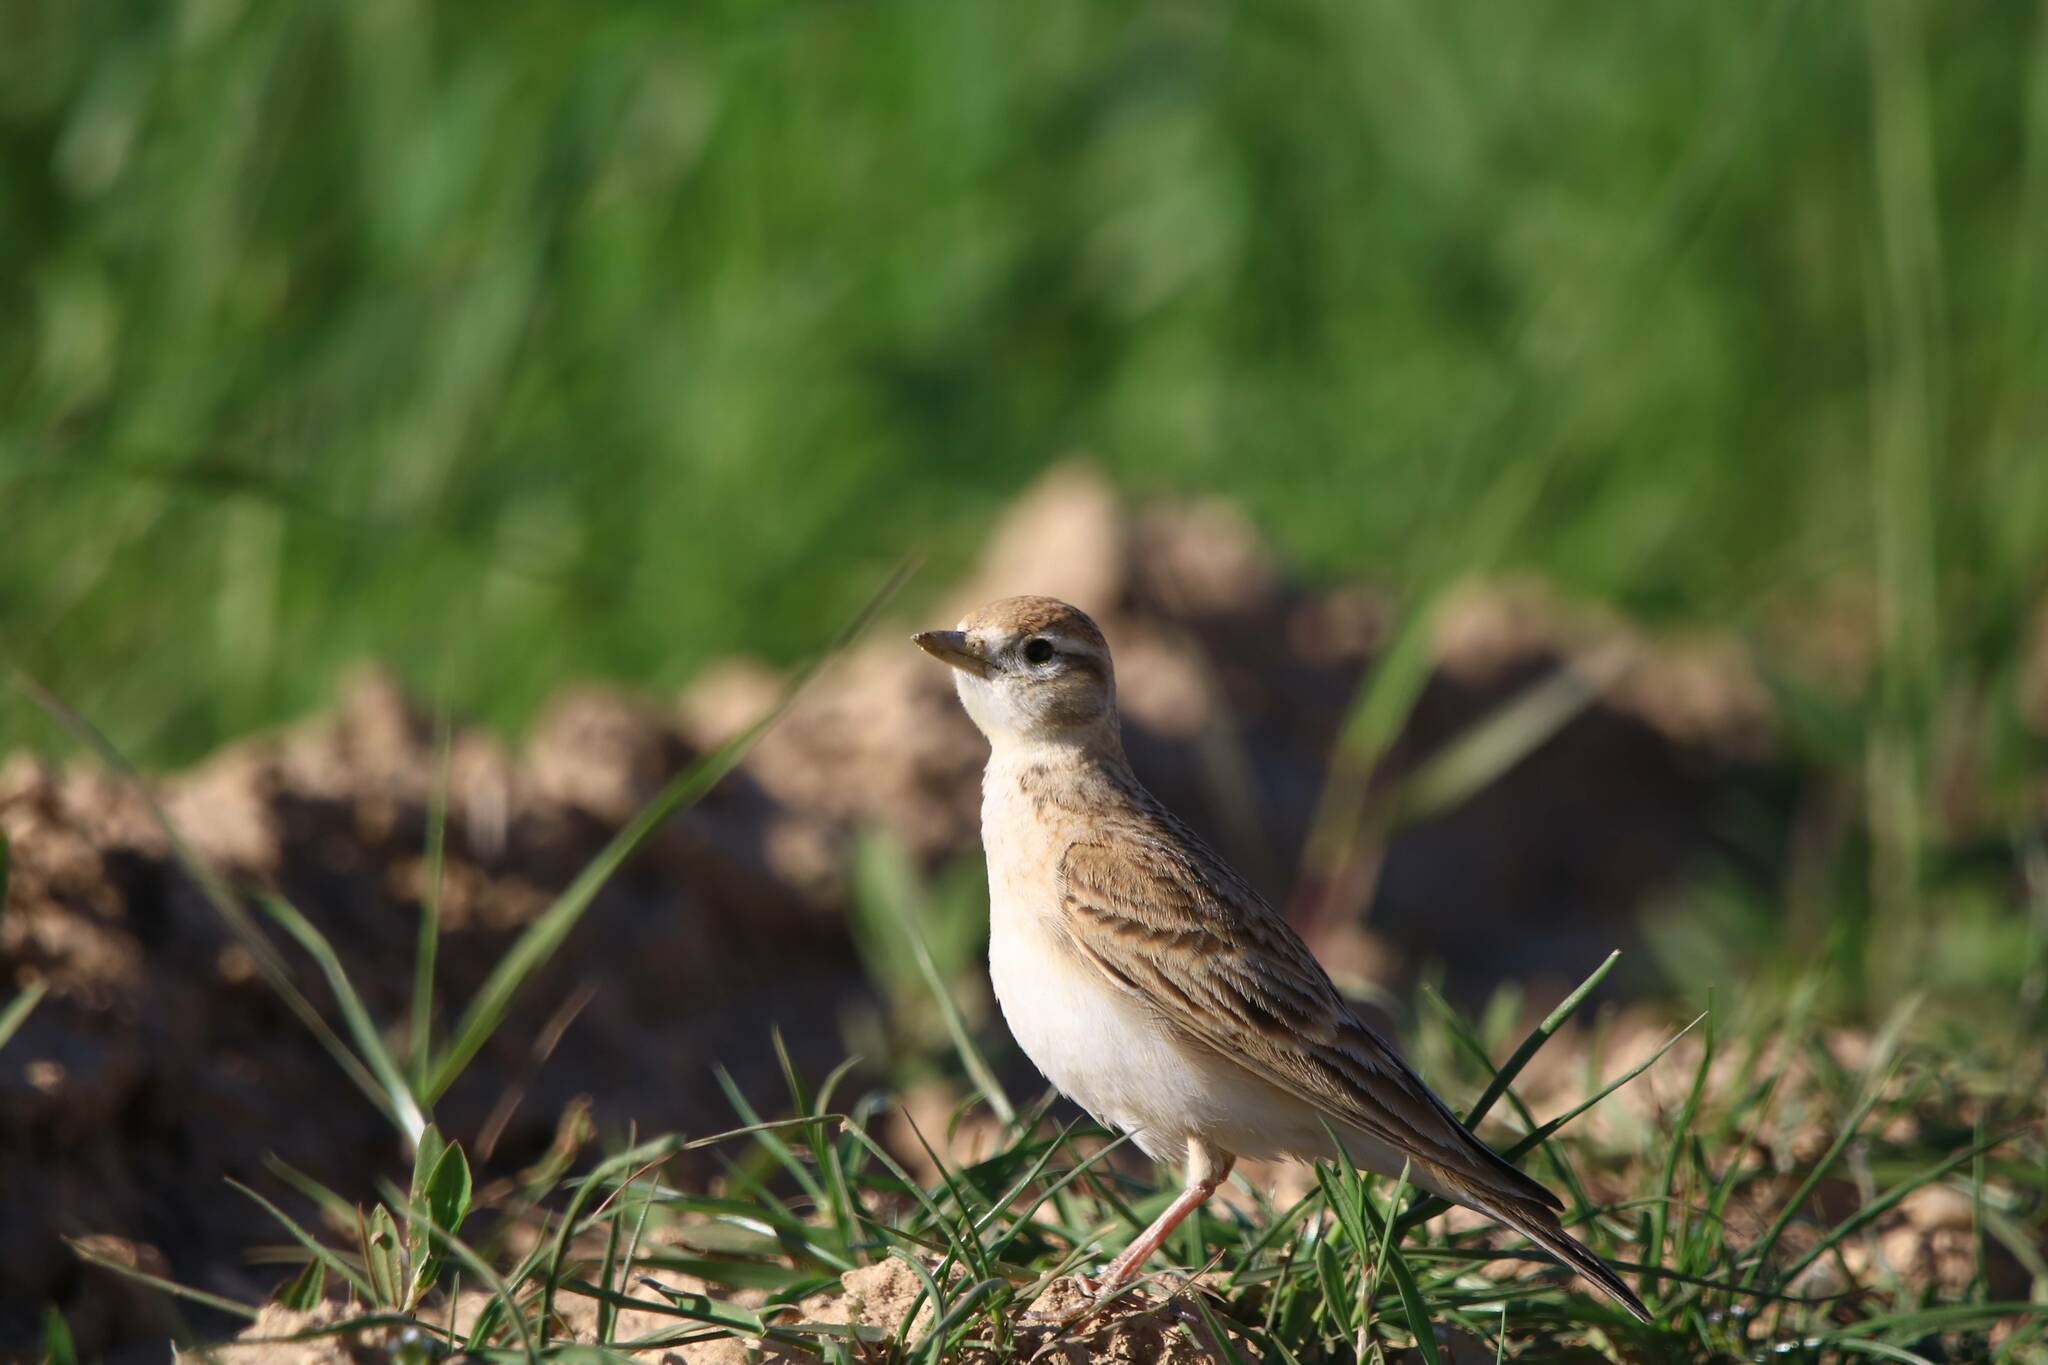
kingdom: Animalia
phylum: Chordata
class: Aves
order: Passeriformes
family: Alaudidae
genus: Calandrella
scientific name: Calandrella brachydactyla
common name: Greater short-toed lark
